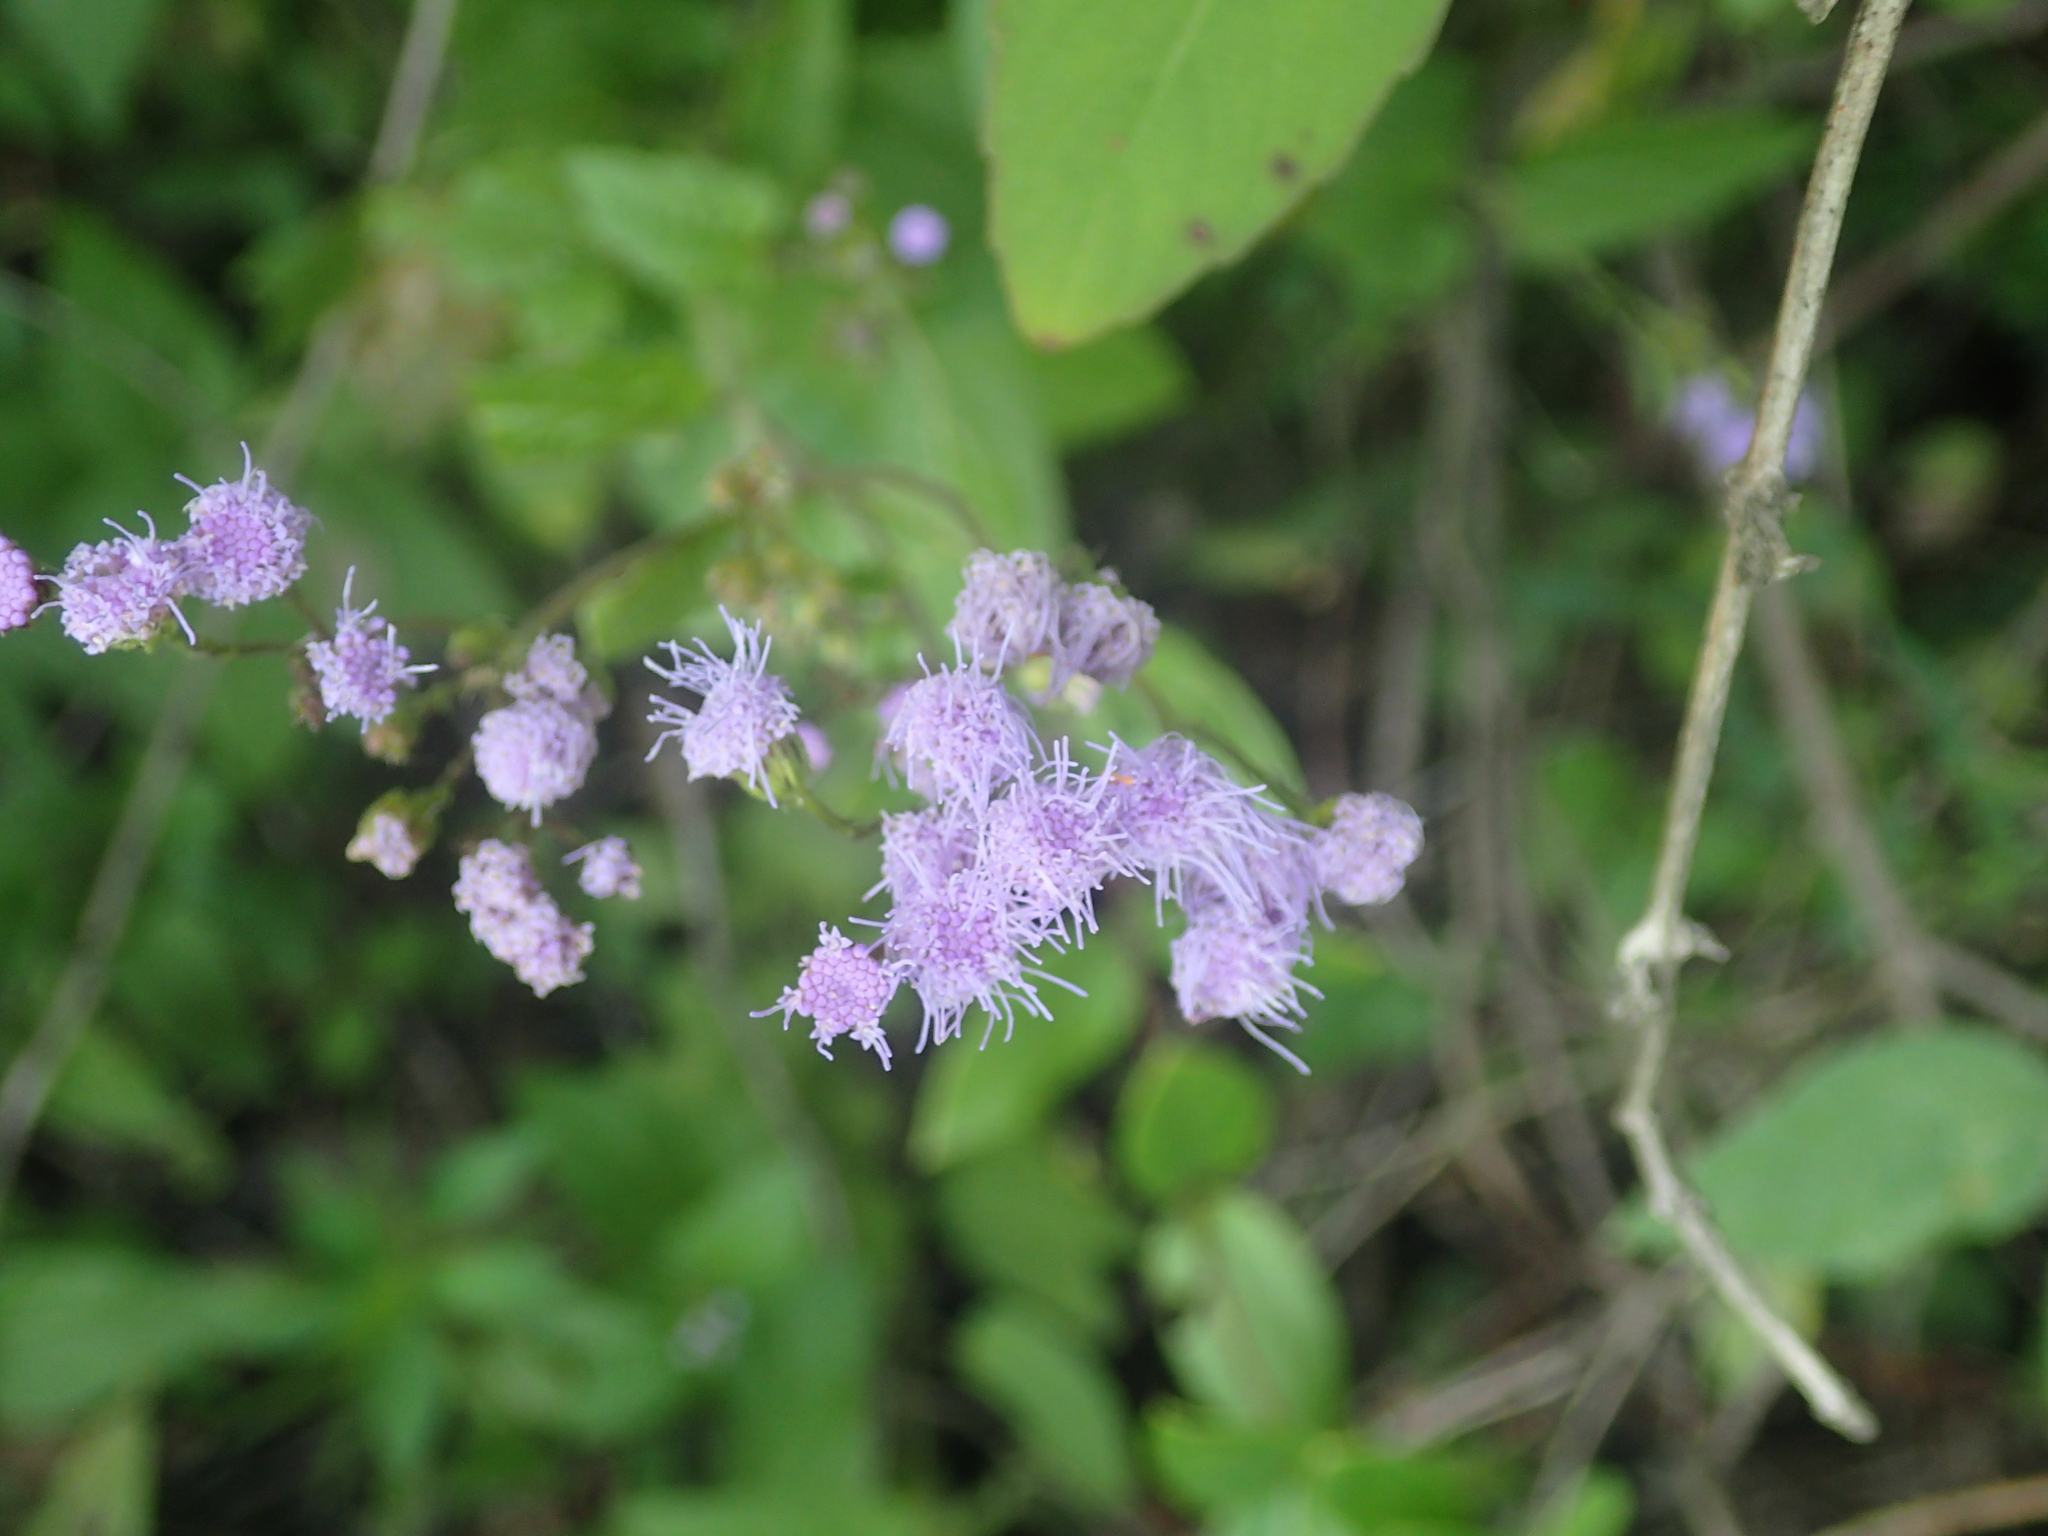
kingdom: Plantae
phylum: Tracheophyta
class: Magnoliopsida
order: Asterales
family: Asteraceae
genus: Conoclinium
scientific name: Conoclinium coelestinum
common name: Blue mistflower
